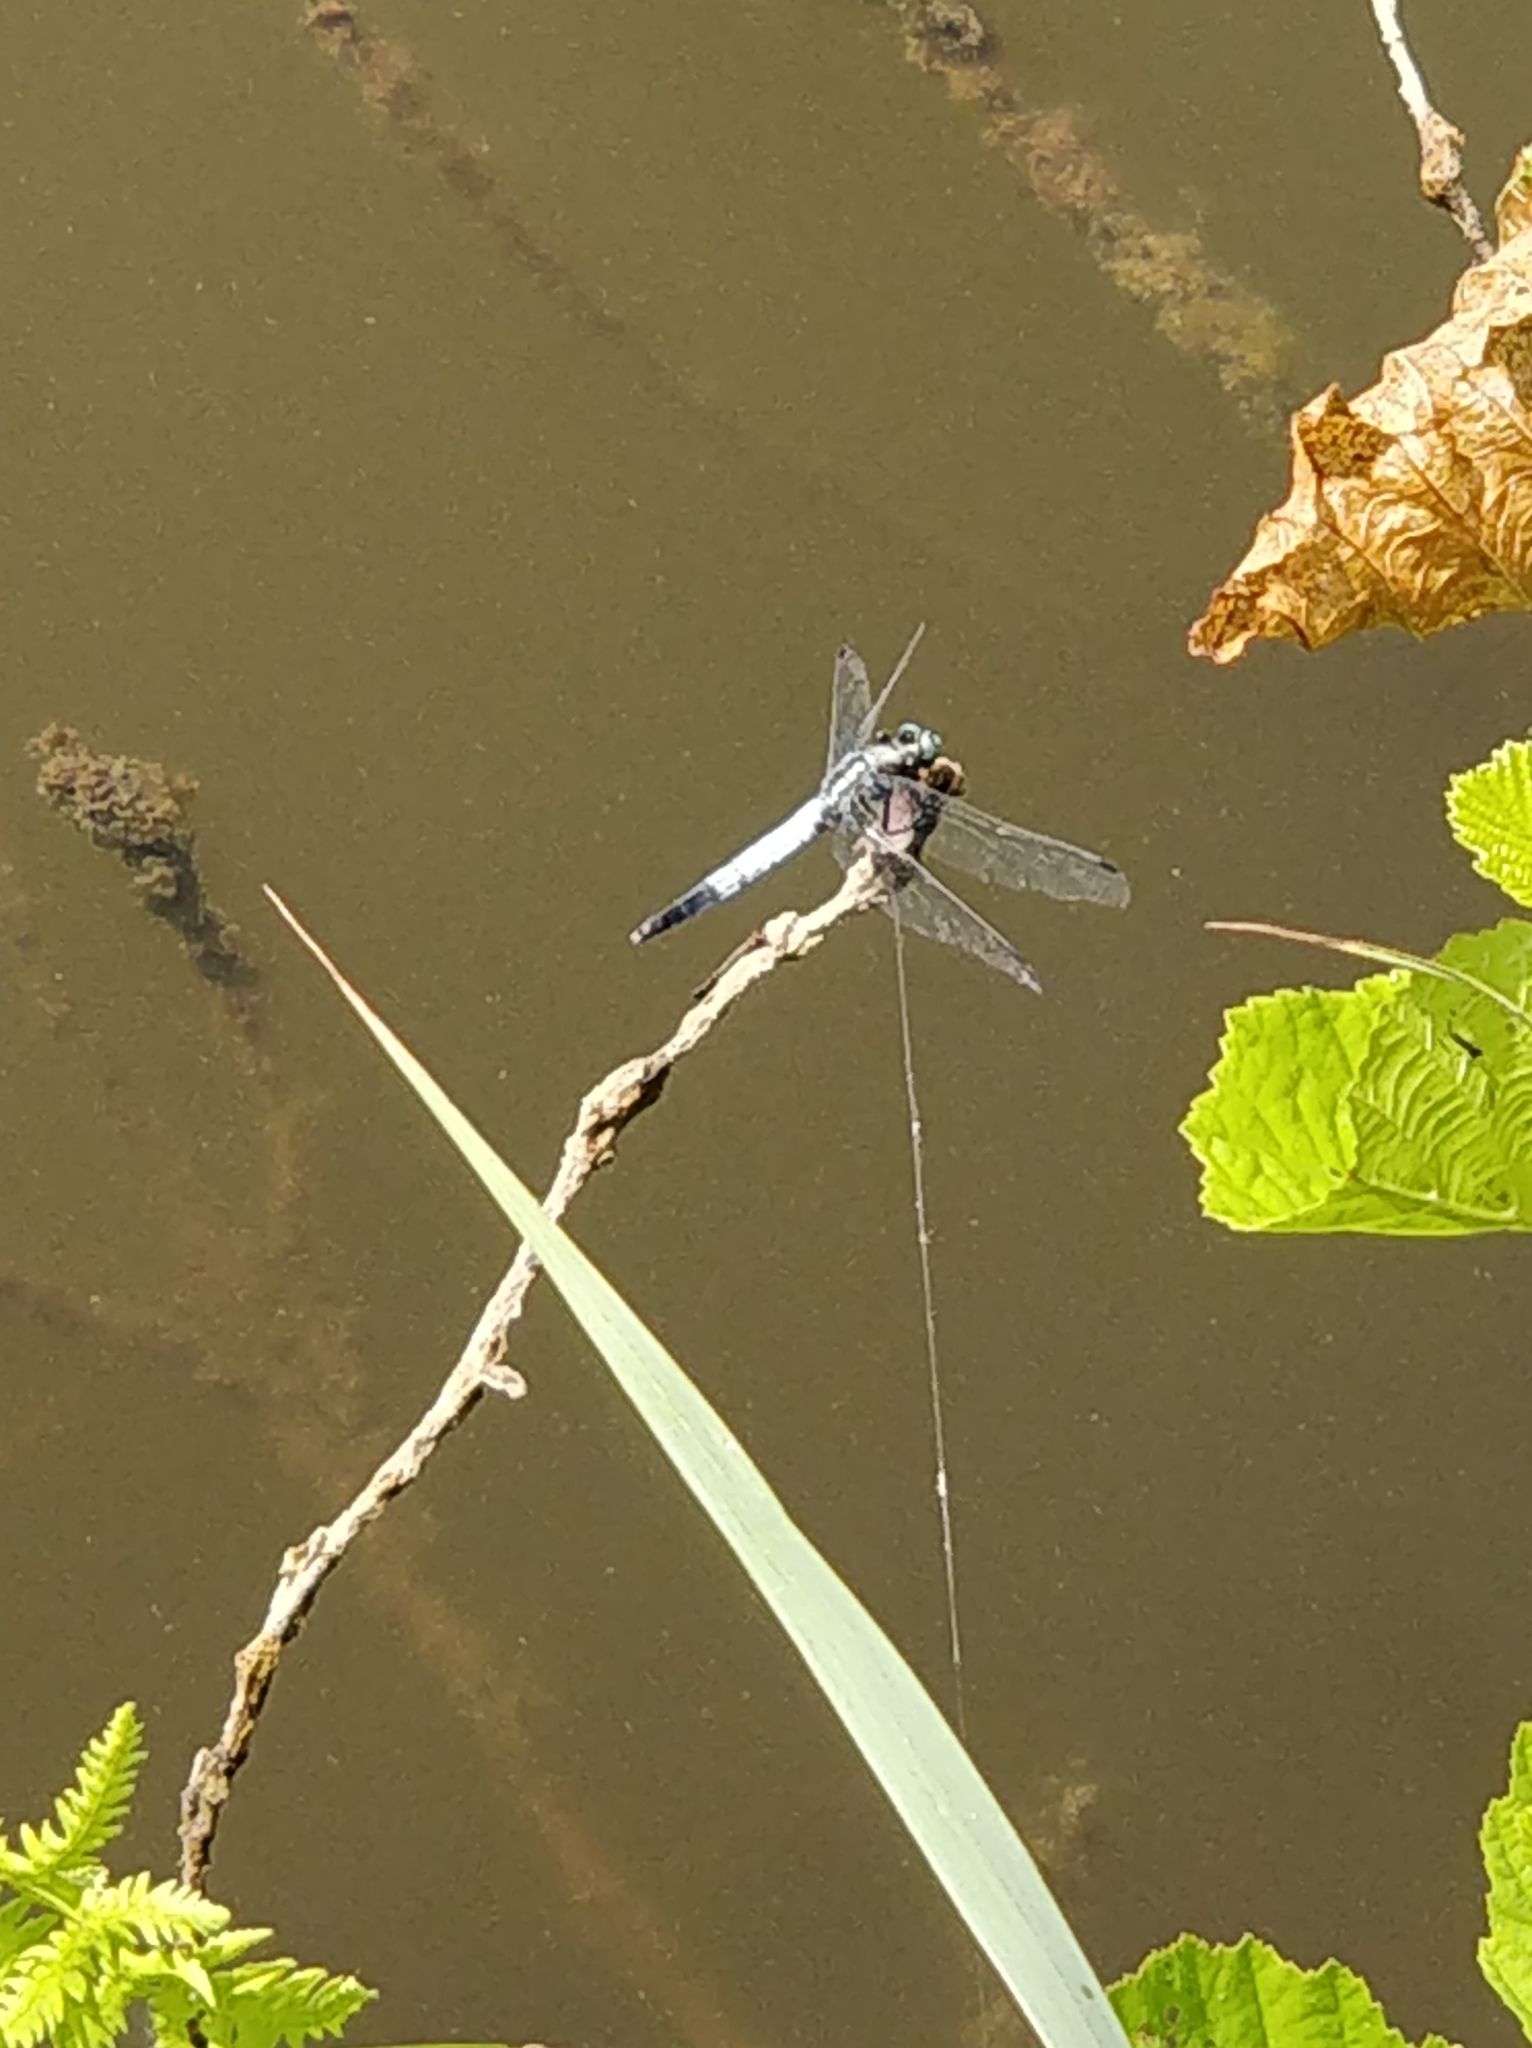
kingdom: Animalia
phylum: Arthropoda
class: Insecta
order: Odonata
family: Libellulidae
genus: Orthetrum
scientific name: Orthetrum albistylum
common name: White-tailed skimmer
